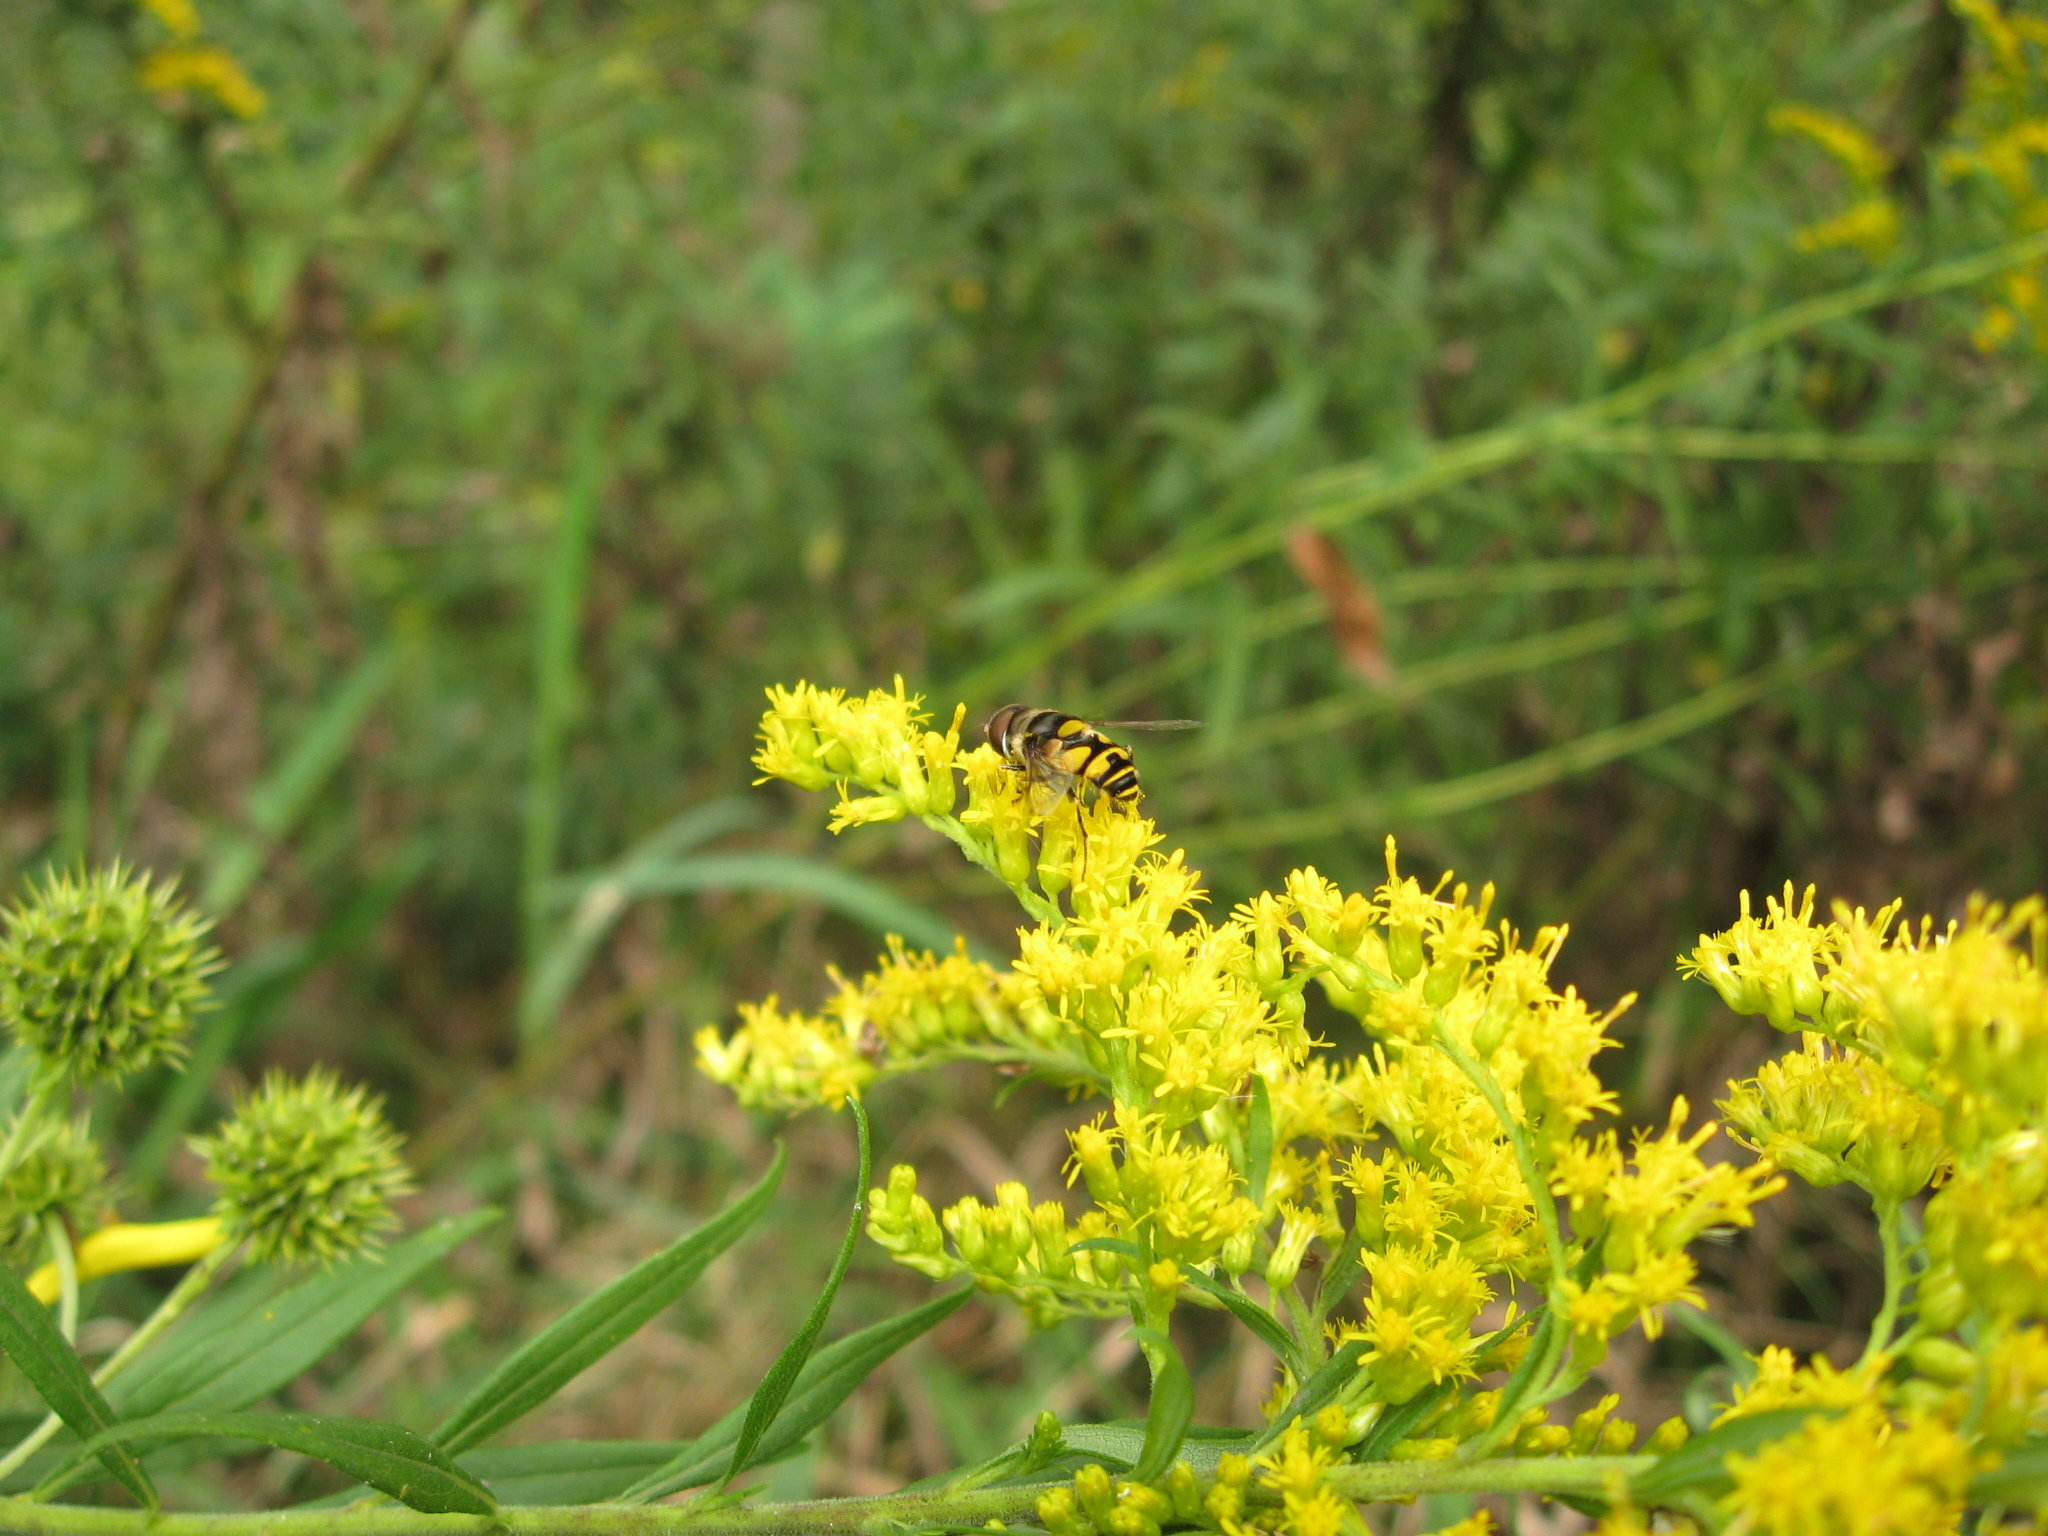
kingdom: Animalia
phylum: Arthropoda
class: Insecta
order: Diptera
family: Syrphidae
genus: Eristalis
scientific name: Eristalis transversa
